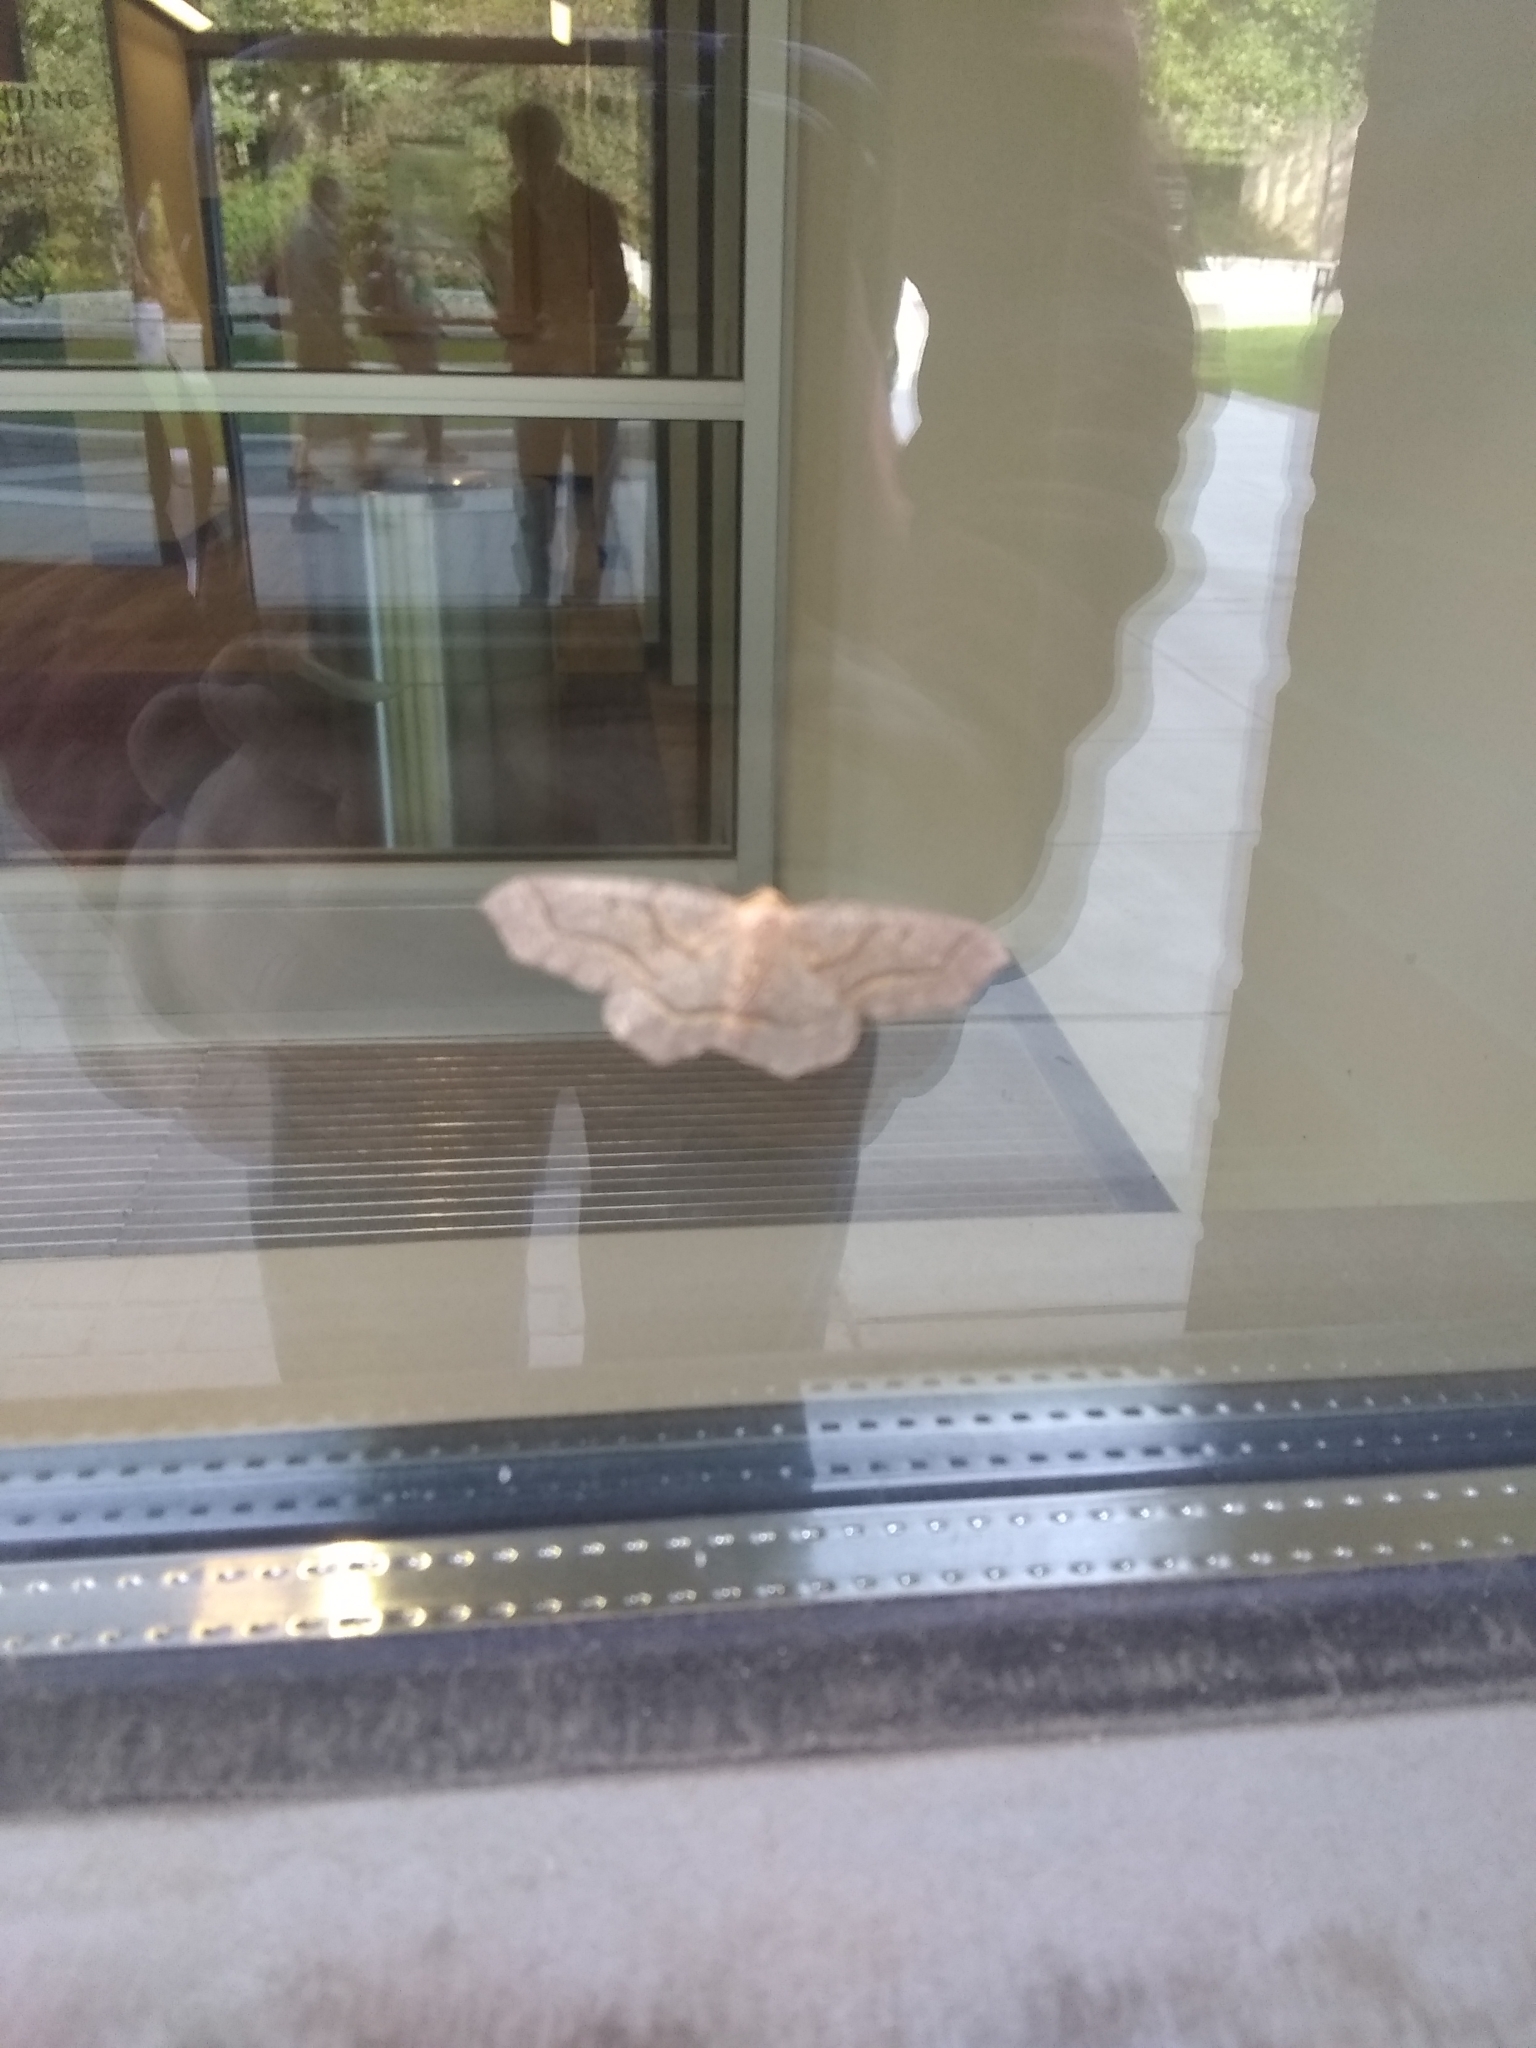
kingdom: Animalia
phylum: Arthropoda
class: Insecta
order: Lepidoptera
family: Geometridae
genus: Lambdina
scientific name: Lambdina fiscellaria
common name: Hemlock looper
